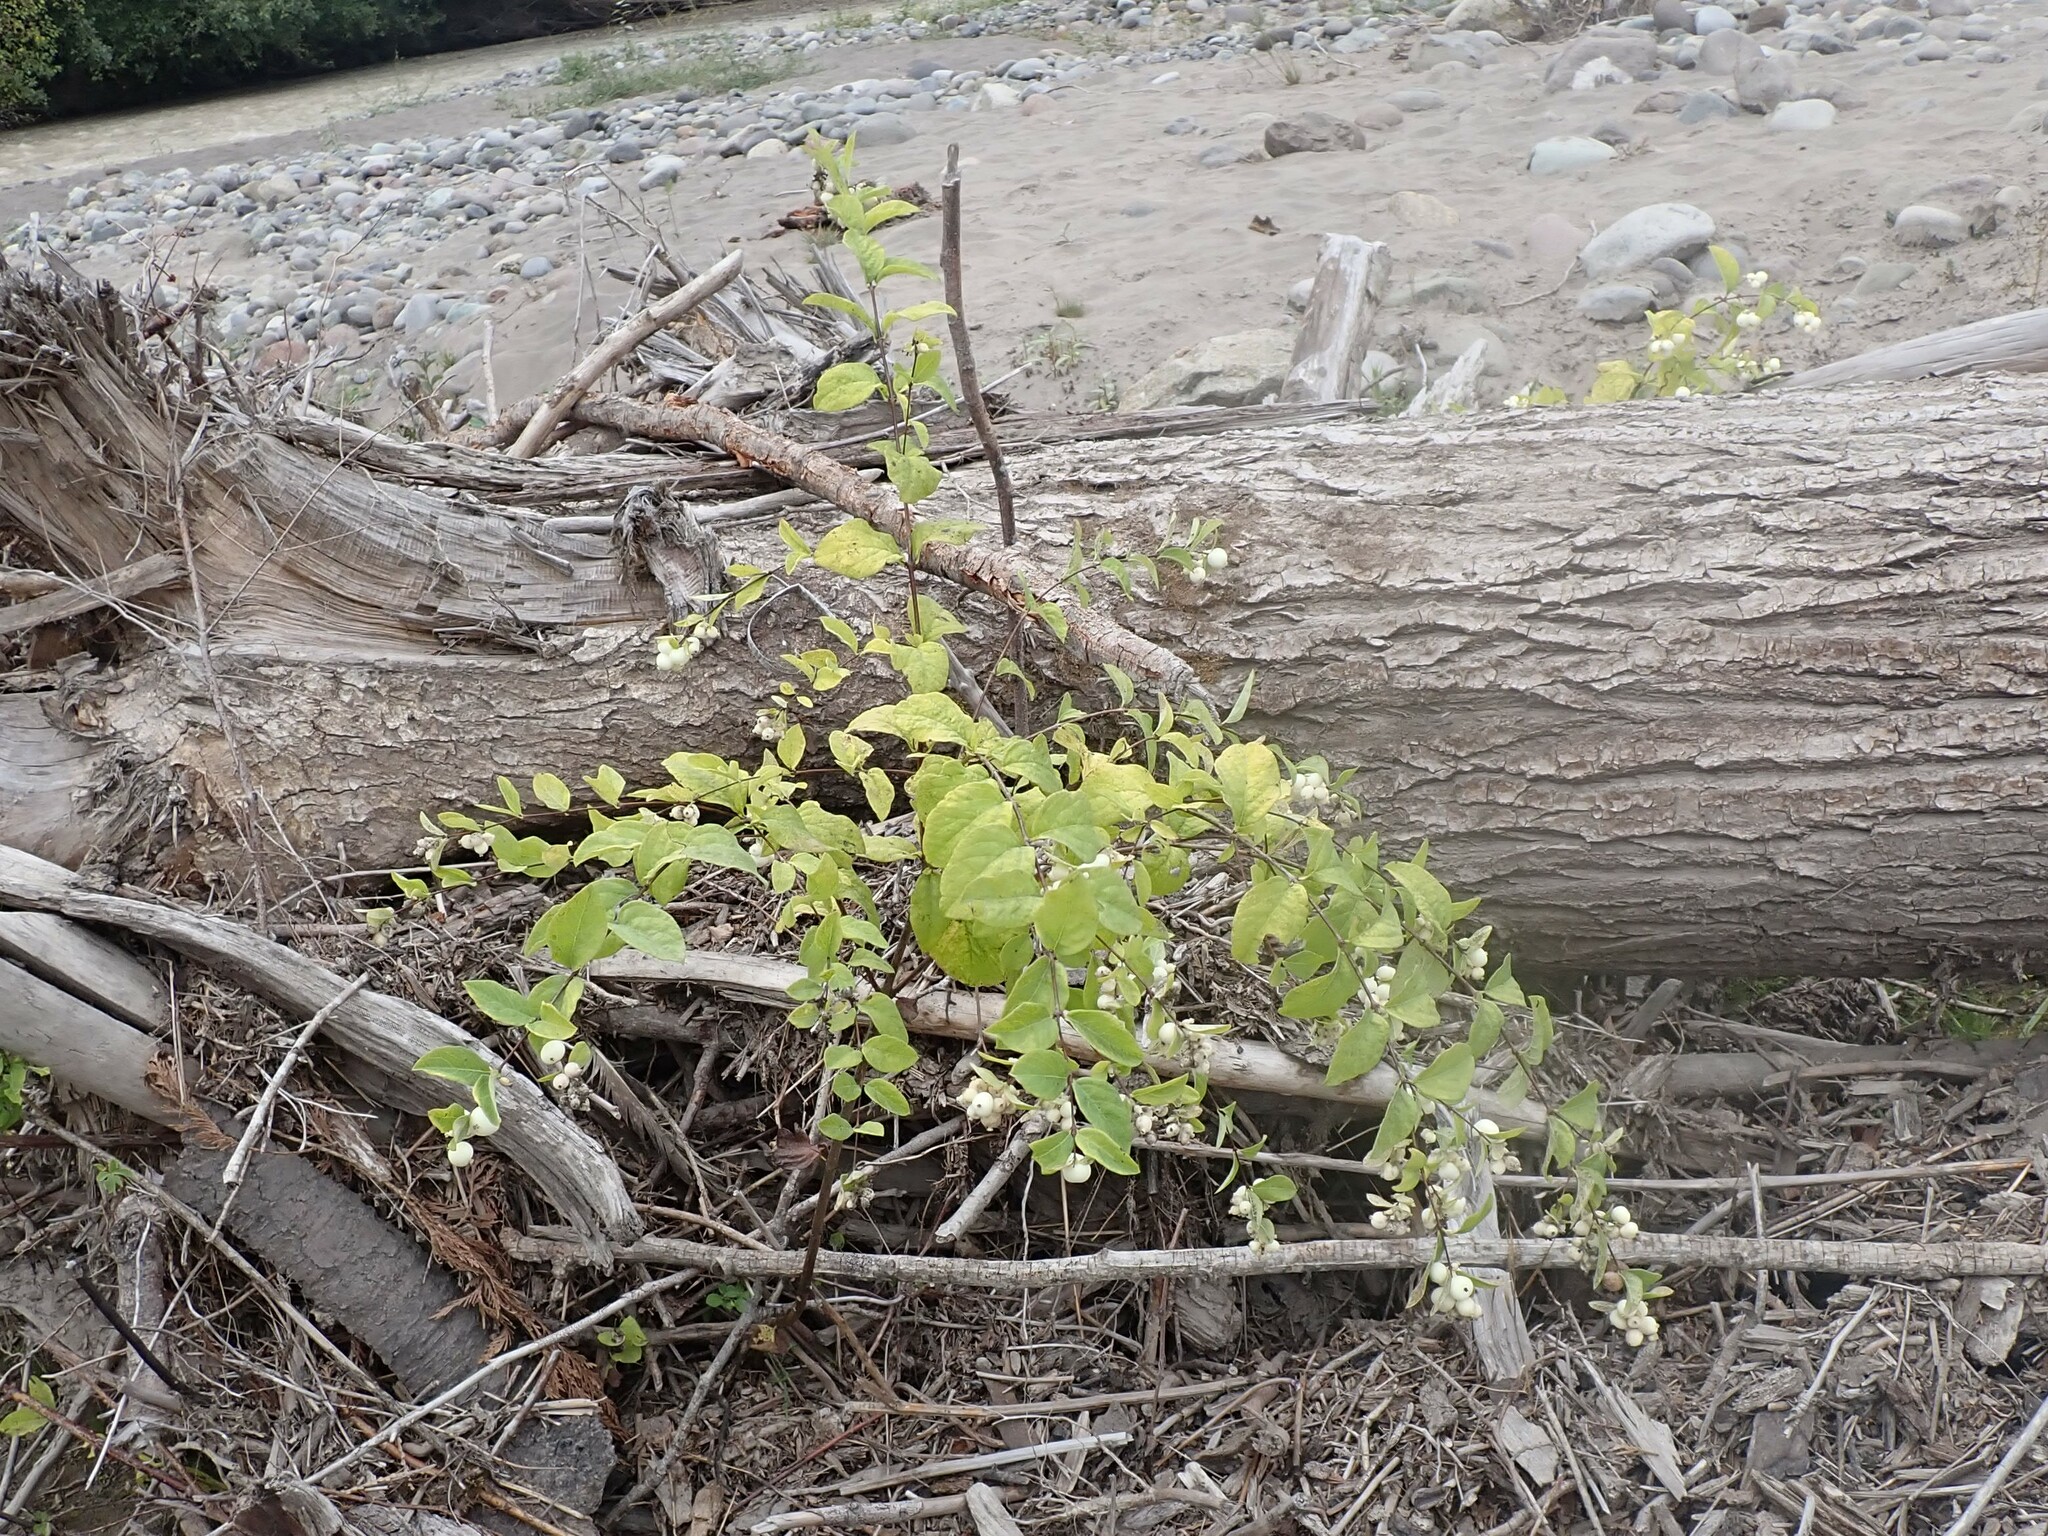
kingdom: Plantae
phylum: Tracheophyta
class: Magnoliopsida
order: Dipsacales
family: Caprifoliaceae
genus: Symphoricarpos
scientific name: Symphoricarpos albus
